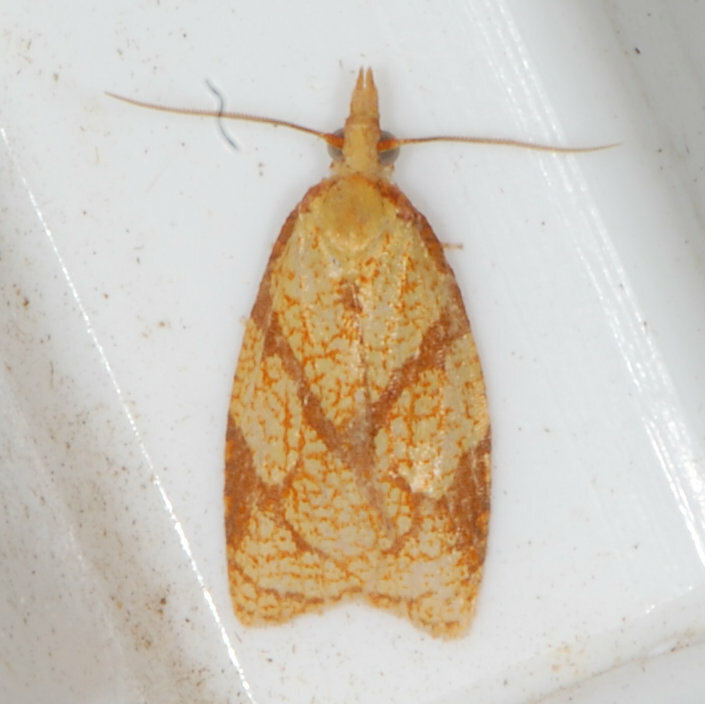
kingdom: Animalia
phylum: Arthropoda
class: Insecta
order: Lepidoptera
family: Tortricidae
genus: Cenopis
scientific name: Cenopis reticulatana
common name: Reticulated fruitworm moth
